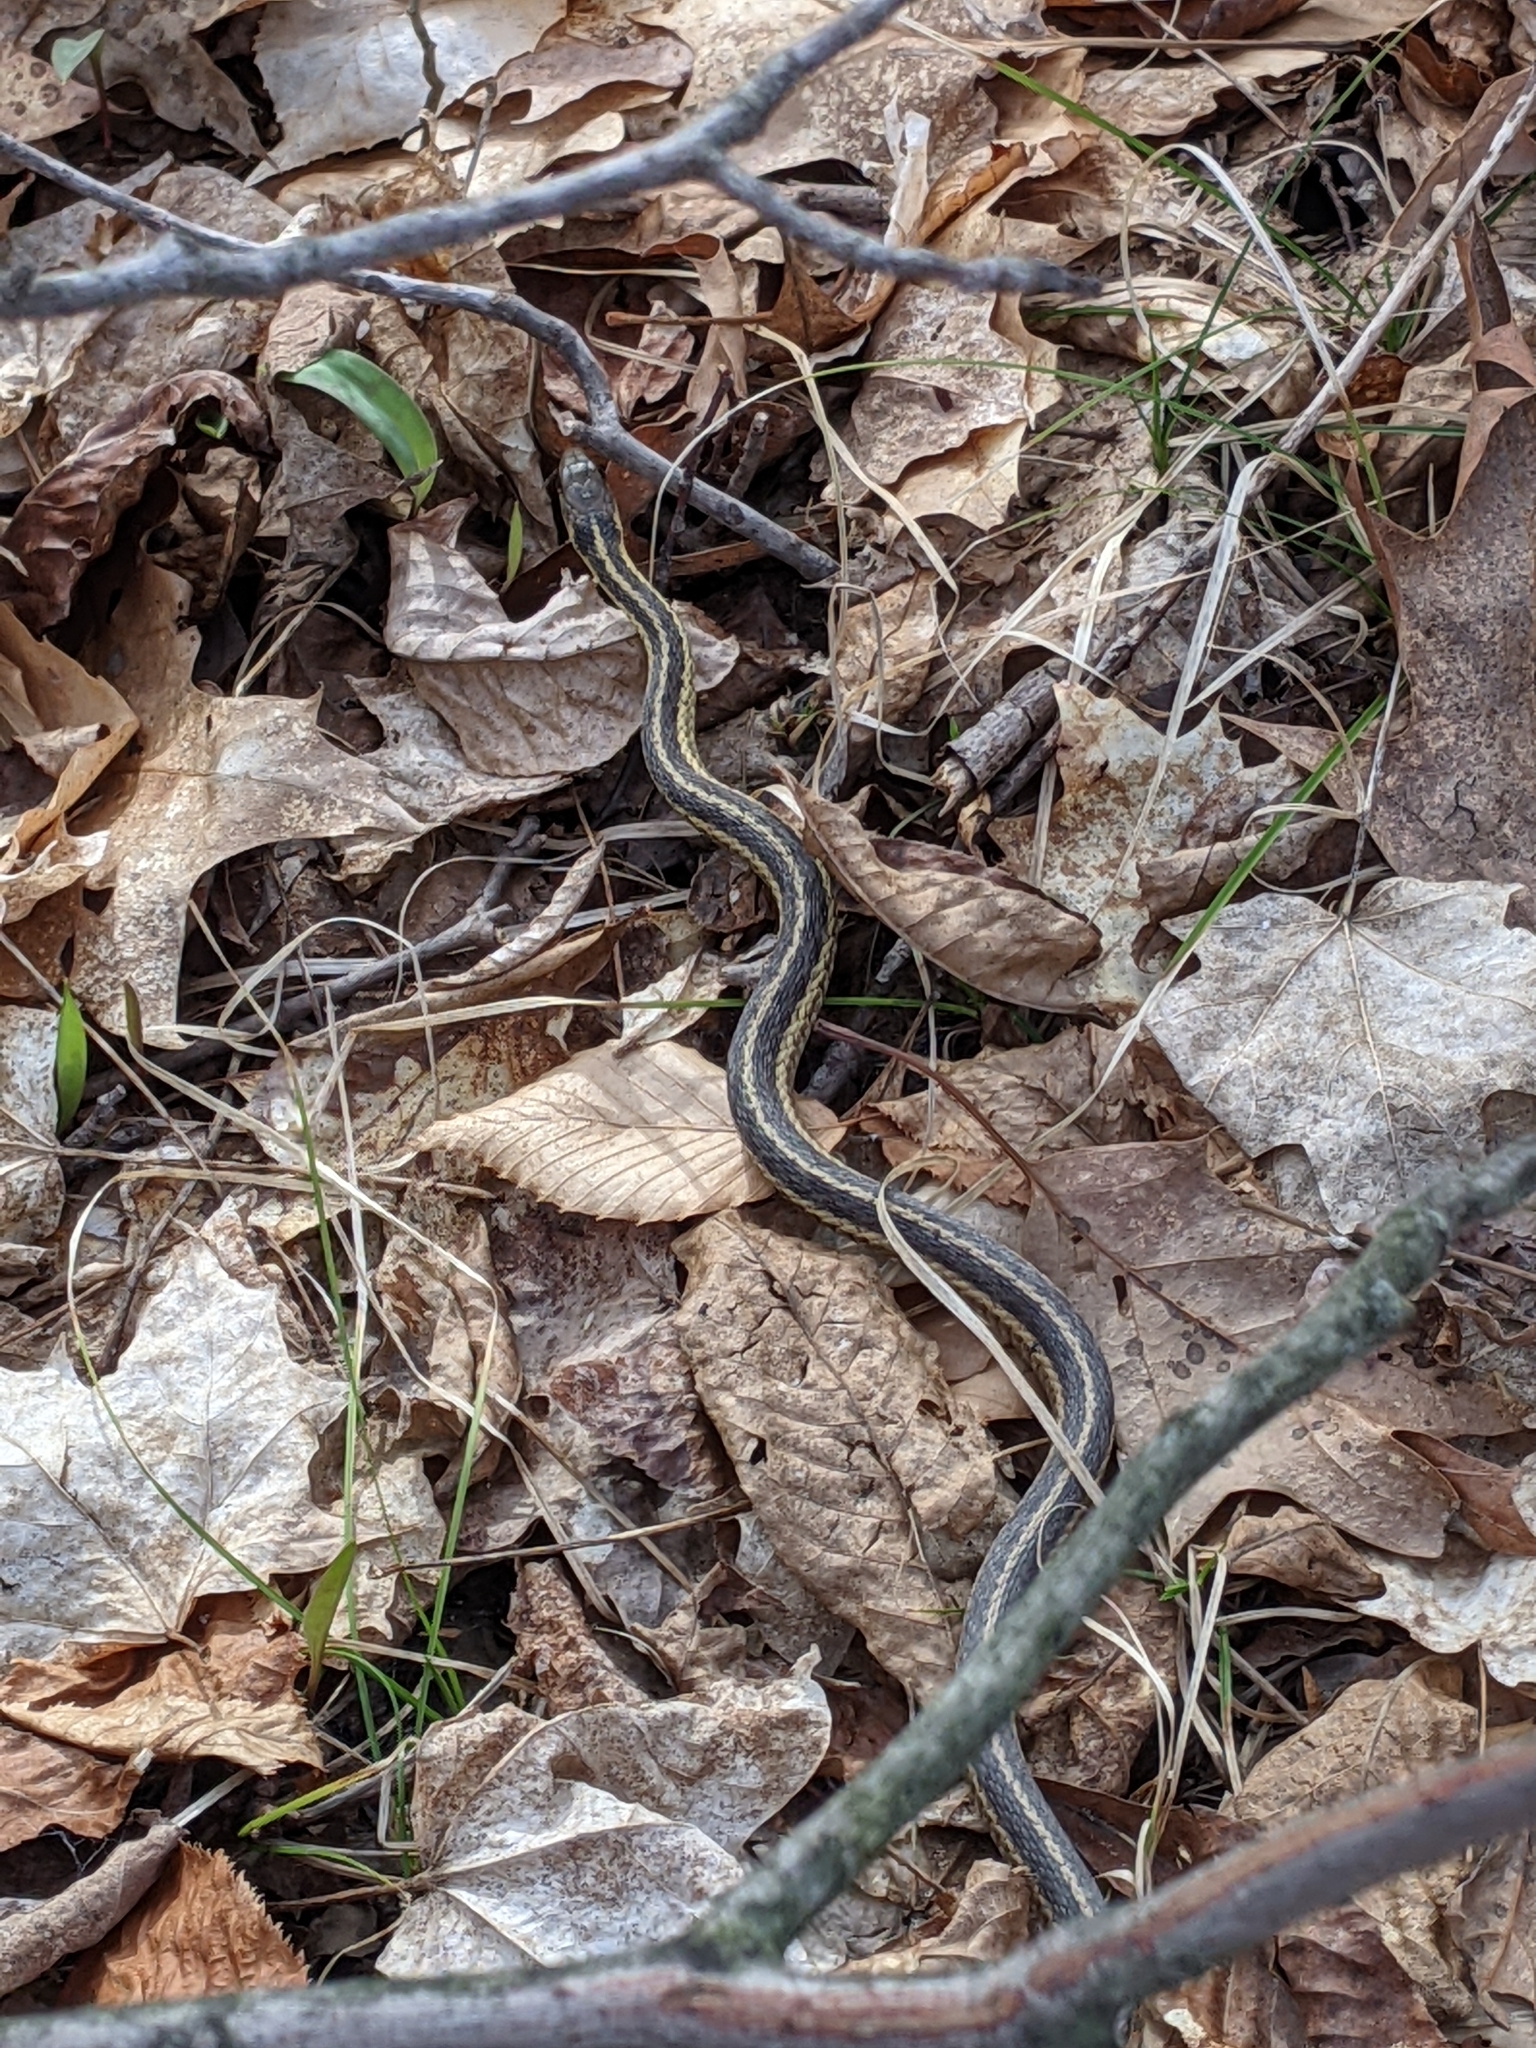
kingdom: Animalia
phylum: Chordata
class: Squamata
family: Colubridae
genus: Thamnophis
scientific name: Thamnophis sirtalis
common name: Common garter snake
